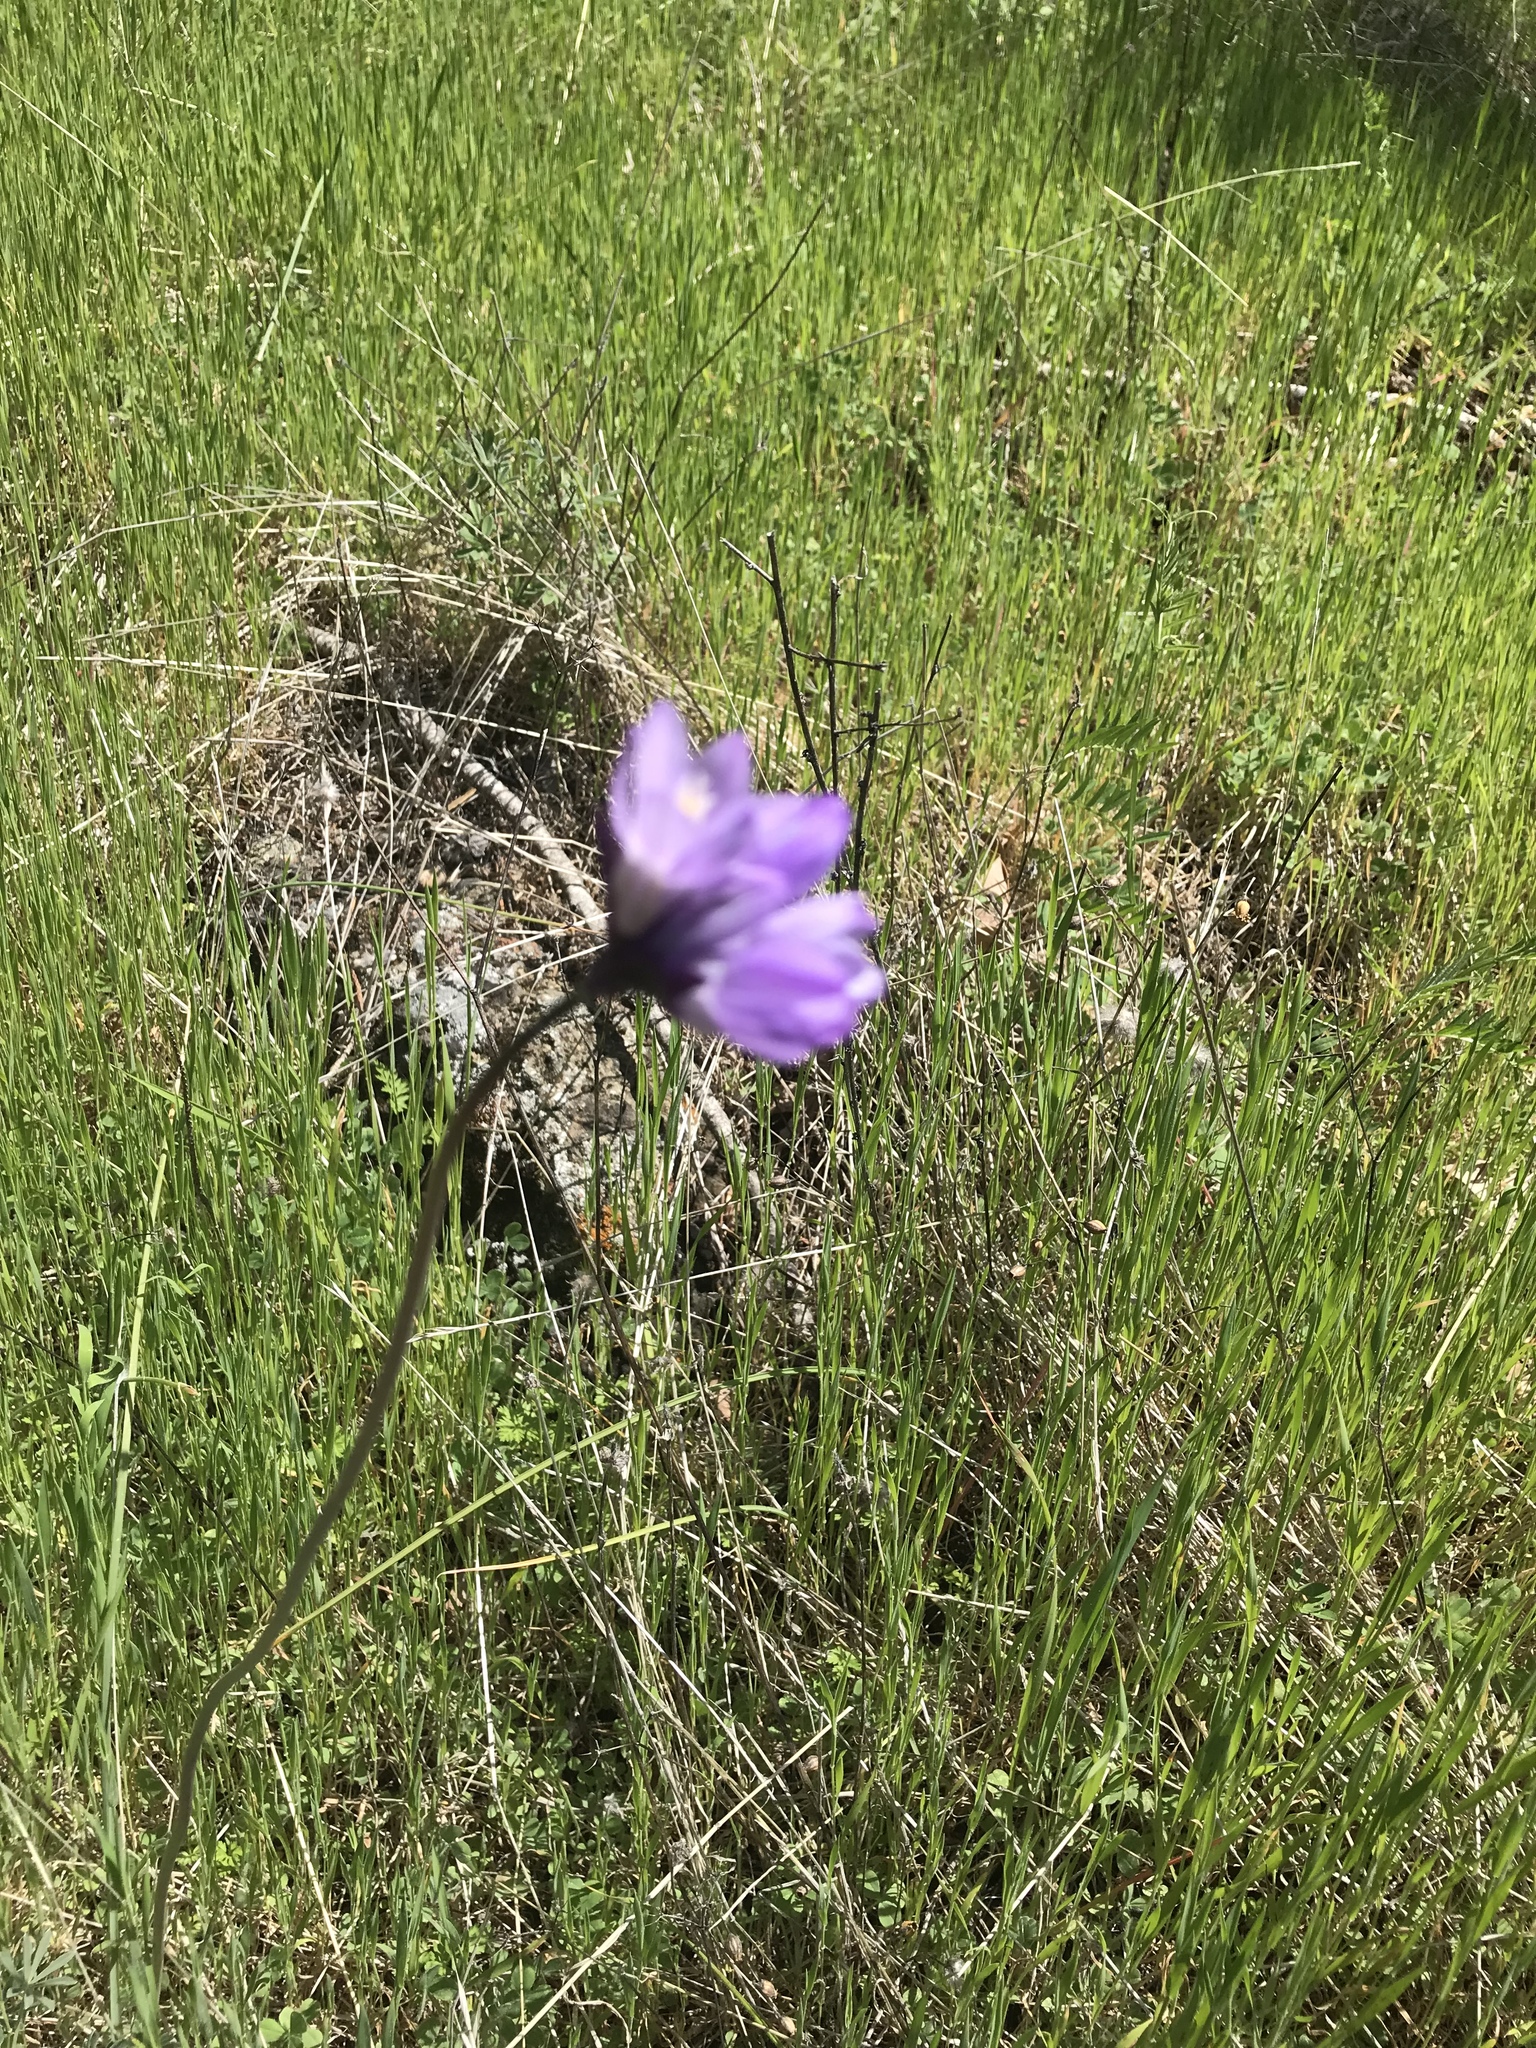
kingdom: Plantae
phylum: Tracheophyta
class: Liliopsida
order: Asparagales
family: Asparagaceae
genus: Dipterostemon
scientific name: Dipterostemon capitatus
